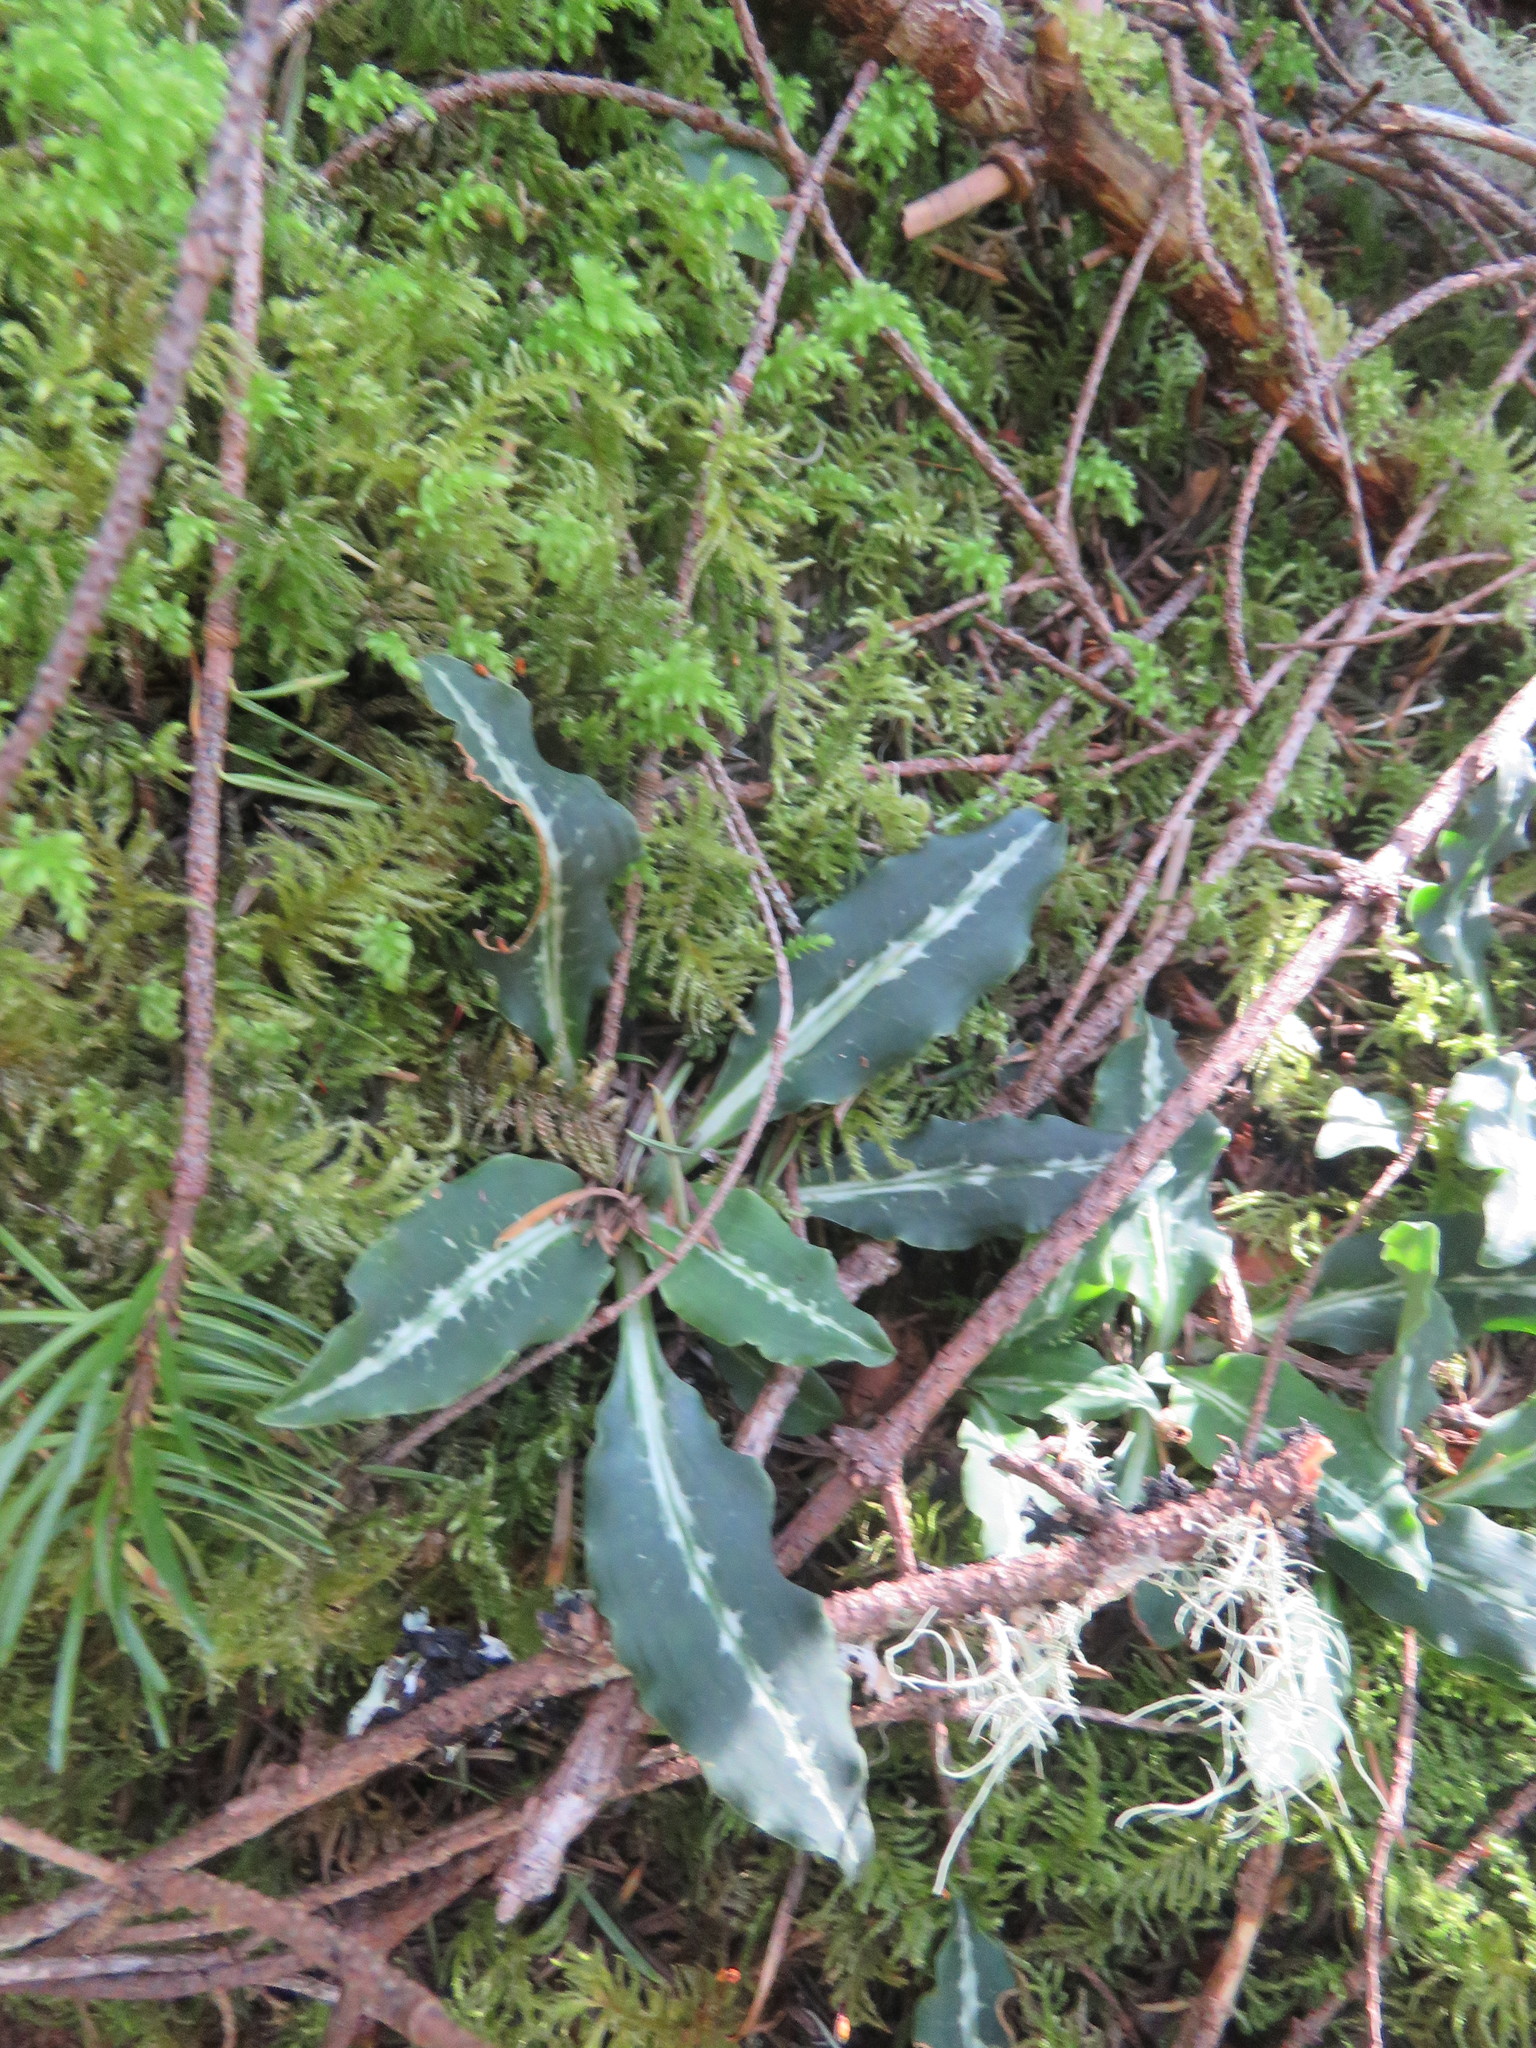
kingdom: Plantae
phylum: Tracheophyta
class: Liliopsida
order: Asparagales
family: Orchidaceae
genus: Goodyera
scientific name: Goodyera oblongifolia
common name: Giant rattlesnake-plantain
